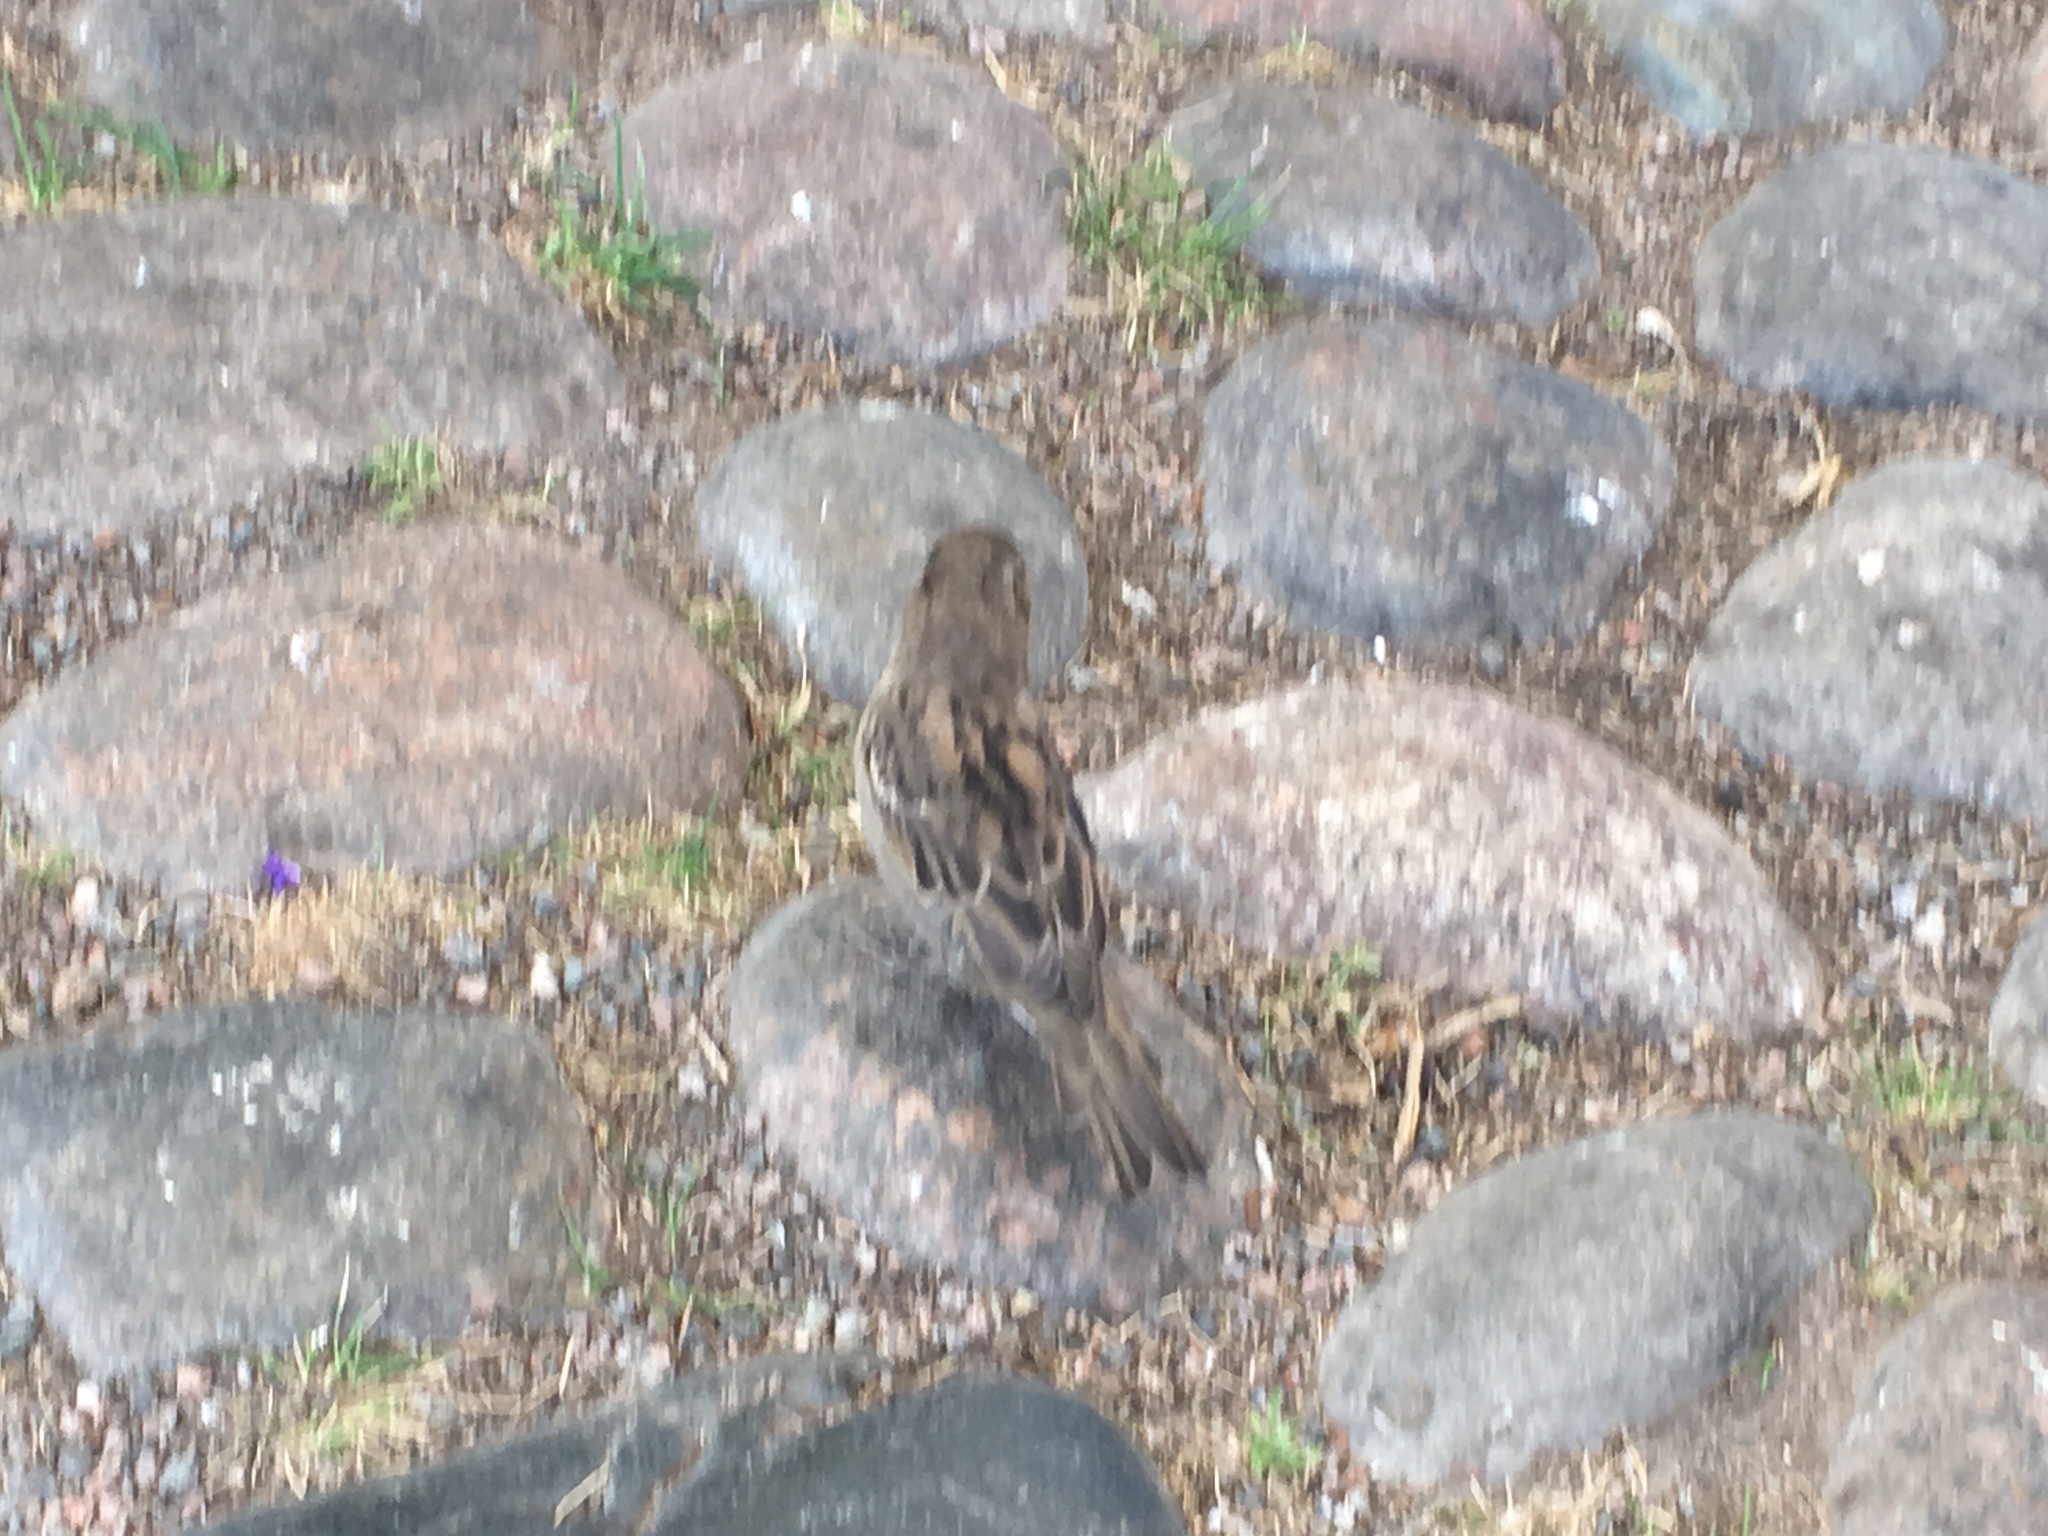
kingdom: Animalia
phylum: Chordata
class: Aves
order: Passeriformes
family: Passeridae
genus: Passer
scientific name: Passer domesticus
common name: House sparrow
